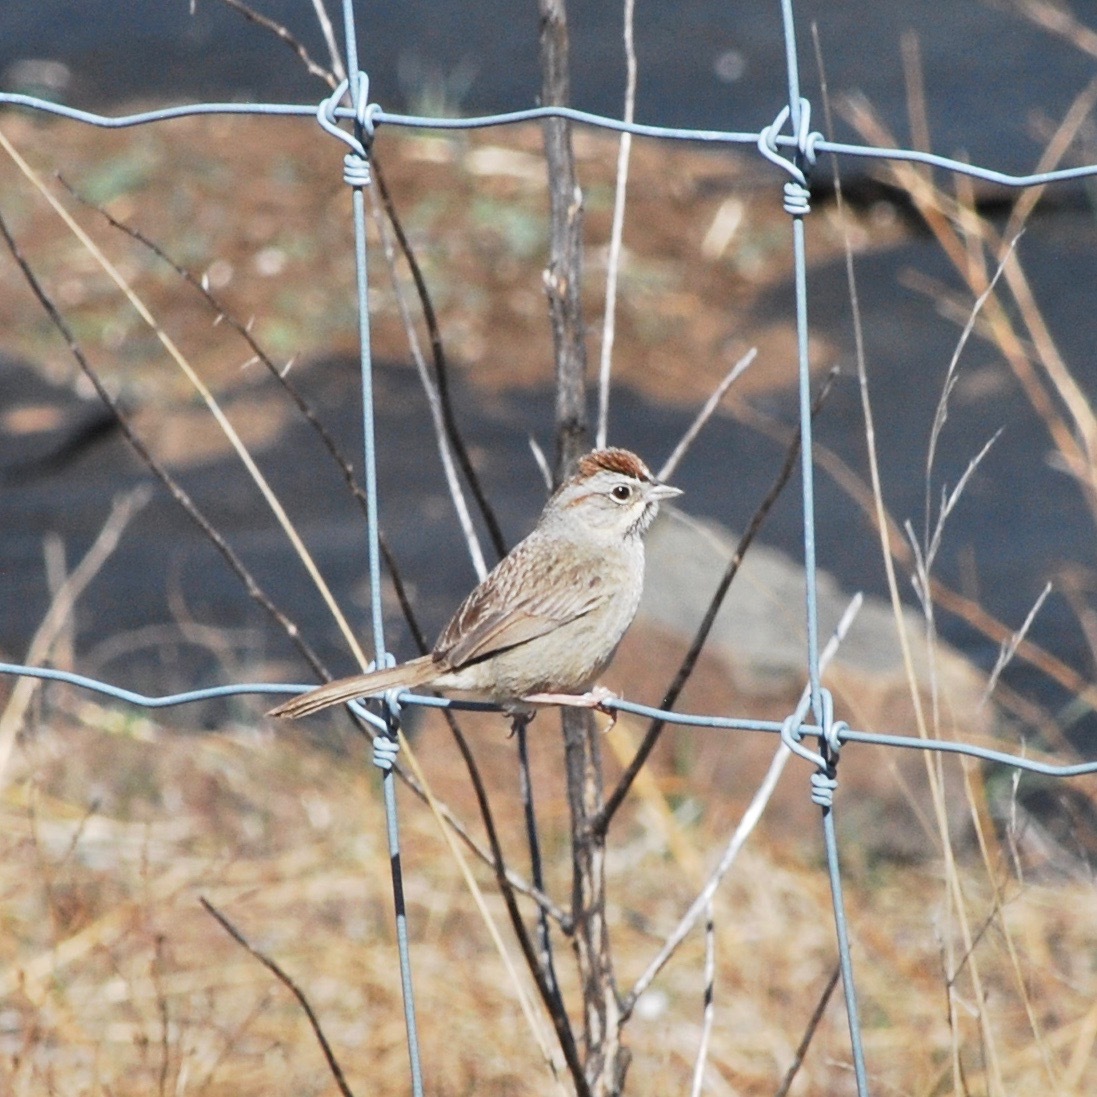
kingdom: Animalia
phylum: Chordata
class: Aves
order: Passeriformes
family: Passerellidae
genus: Aimophila
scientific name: Aimophila ruficeps
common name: Rufous-crowned sparrow
